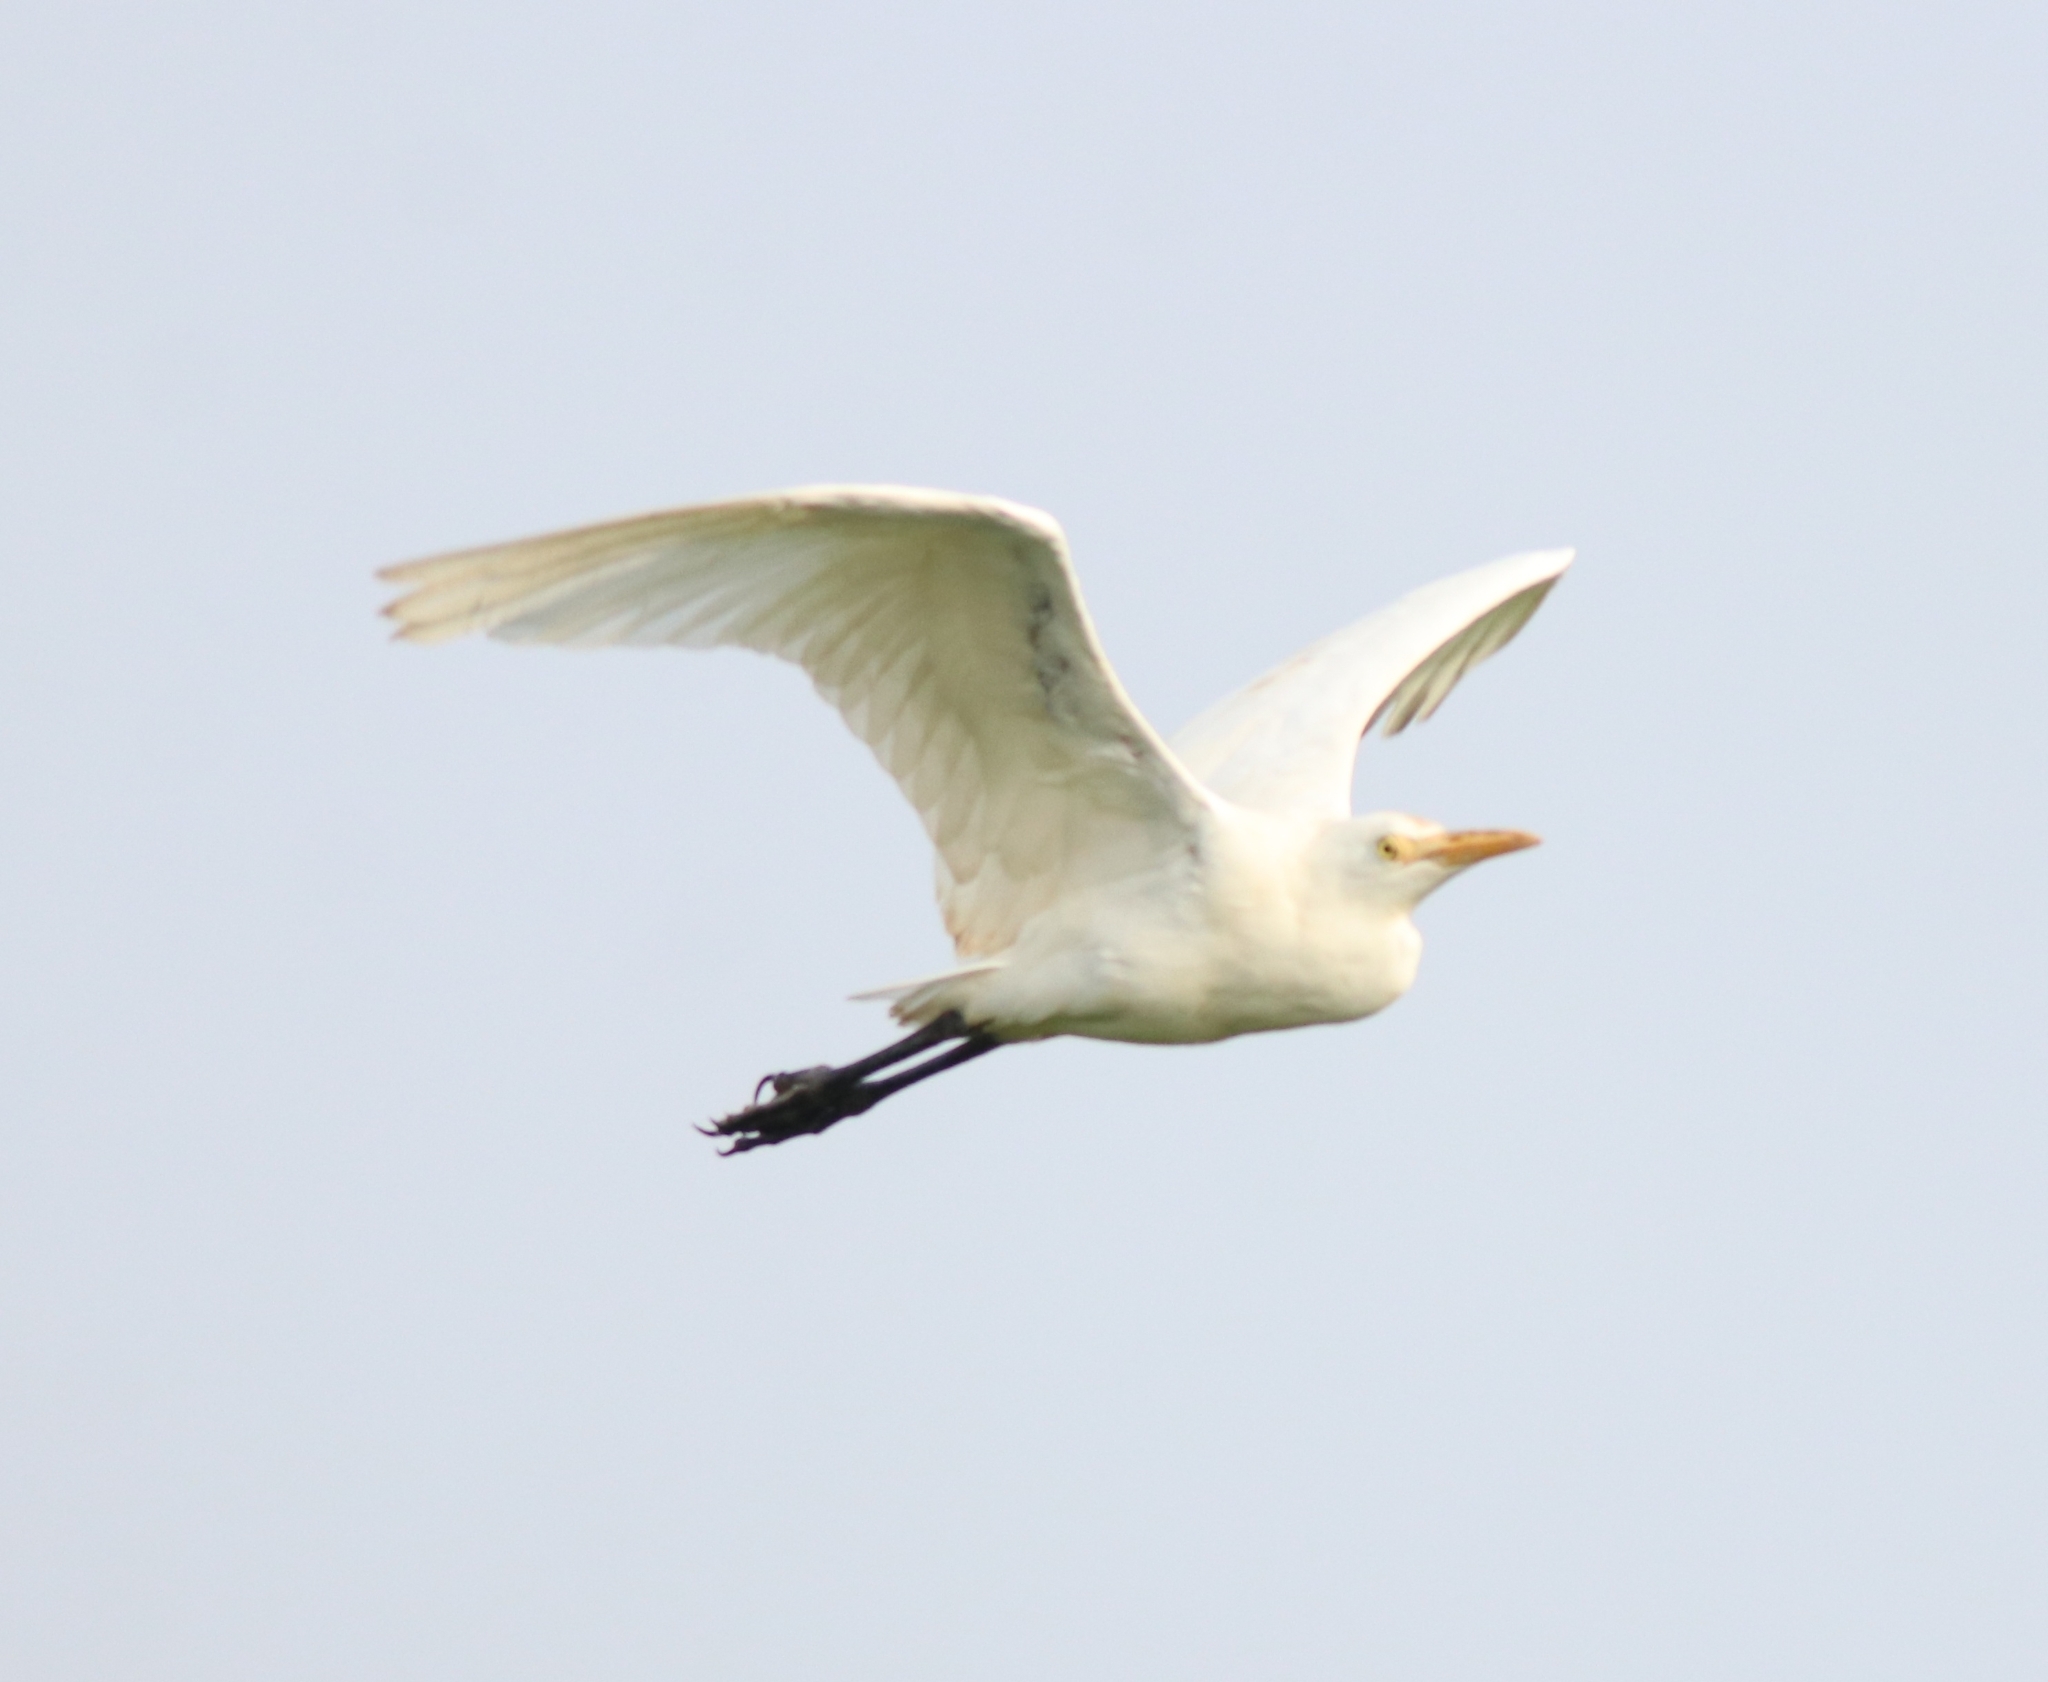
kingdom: Animalia
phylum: Chordata
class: Aves
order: Pelecaniformes
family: Ardeidae
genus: Bubulcus
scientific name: Bubulcus coromandus
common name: Eastern cattle egret
